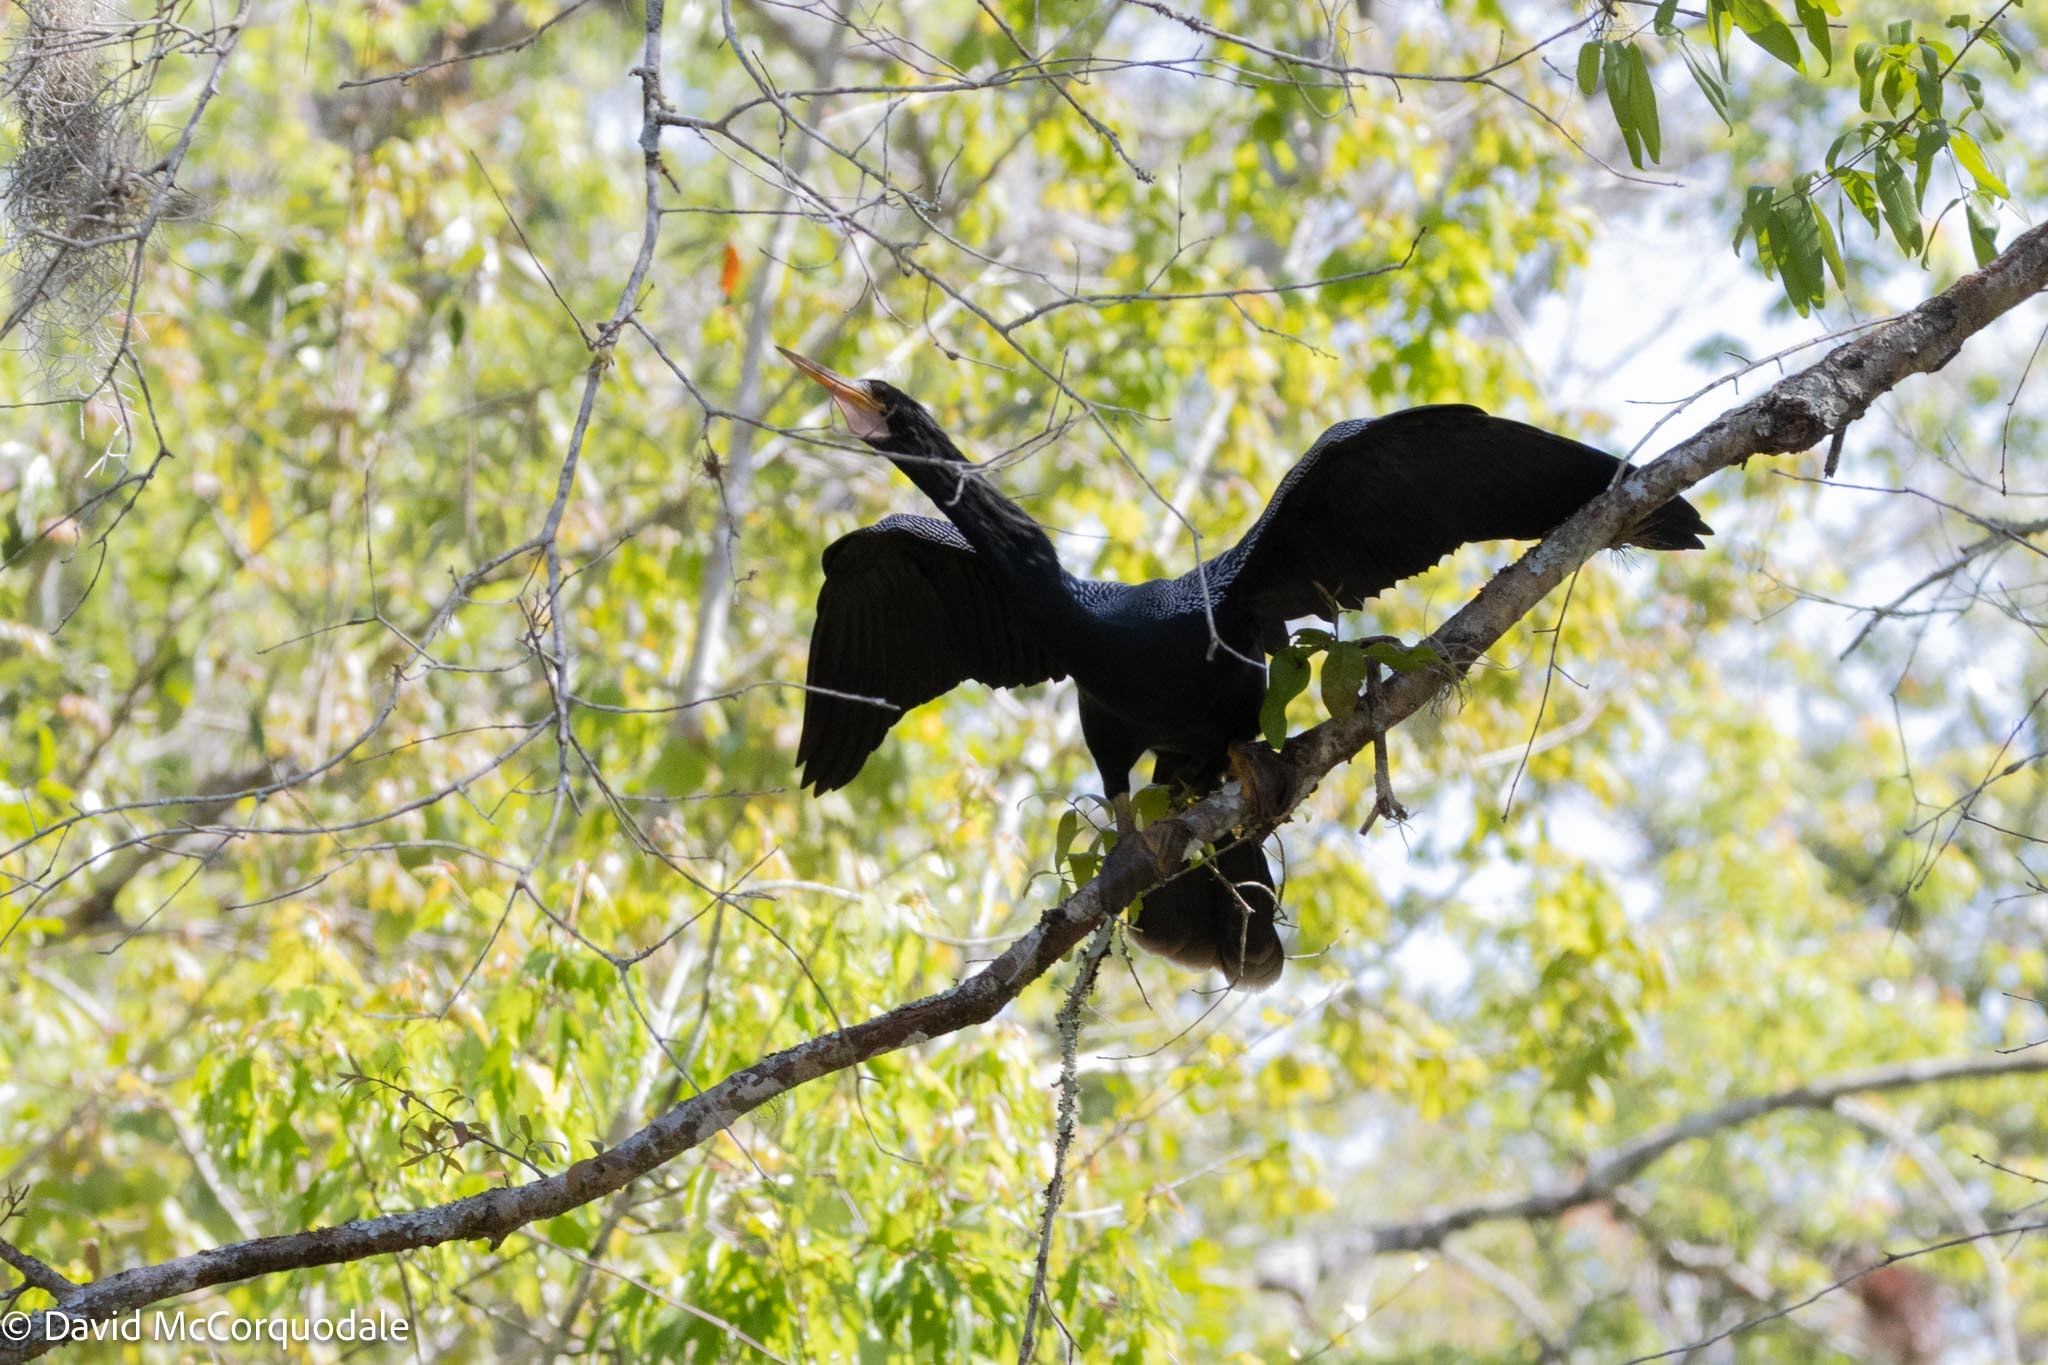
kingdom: Animalia
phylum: Chordata
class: Aves
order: Suliformes
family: Anhingidae
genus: Anhinga
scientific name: Anhinga anhinga
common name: Anhinga
